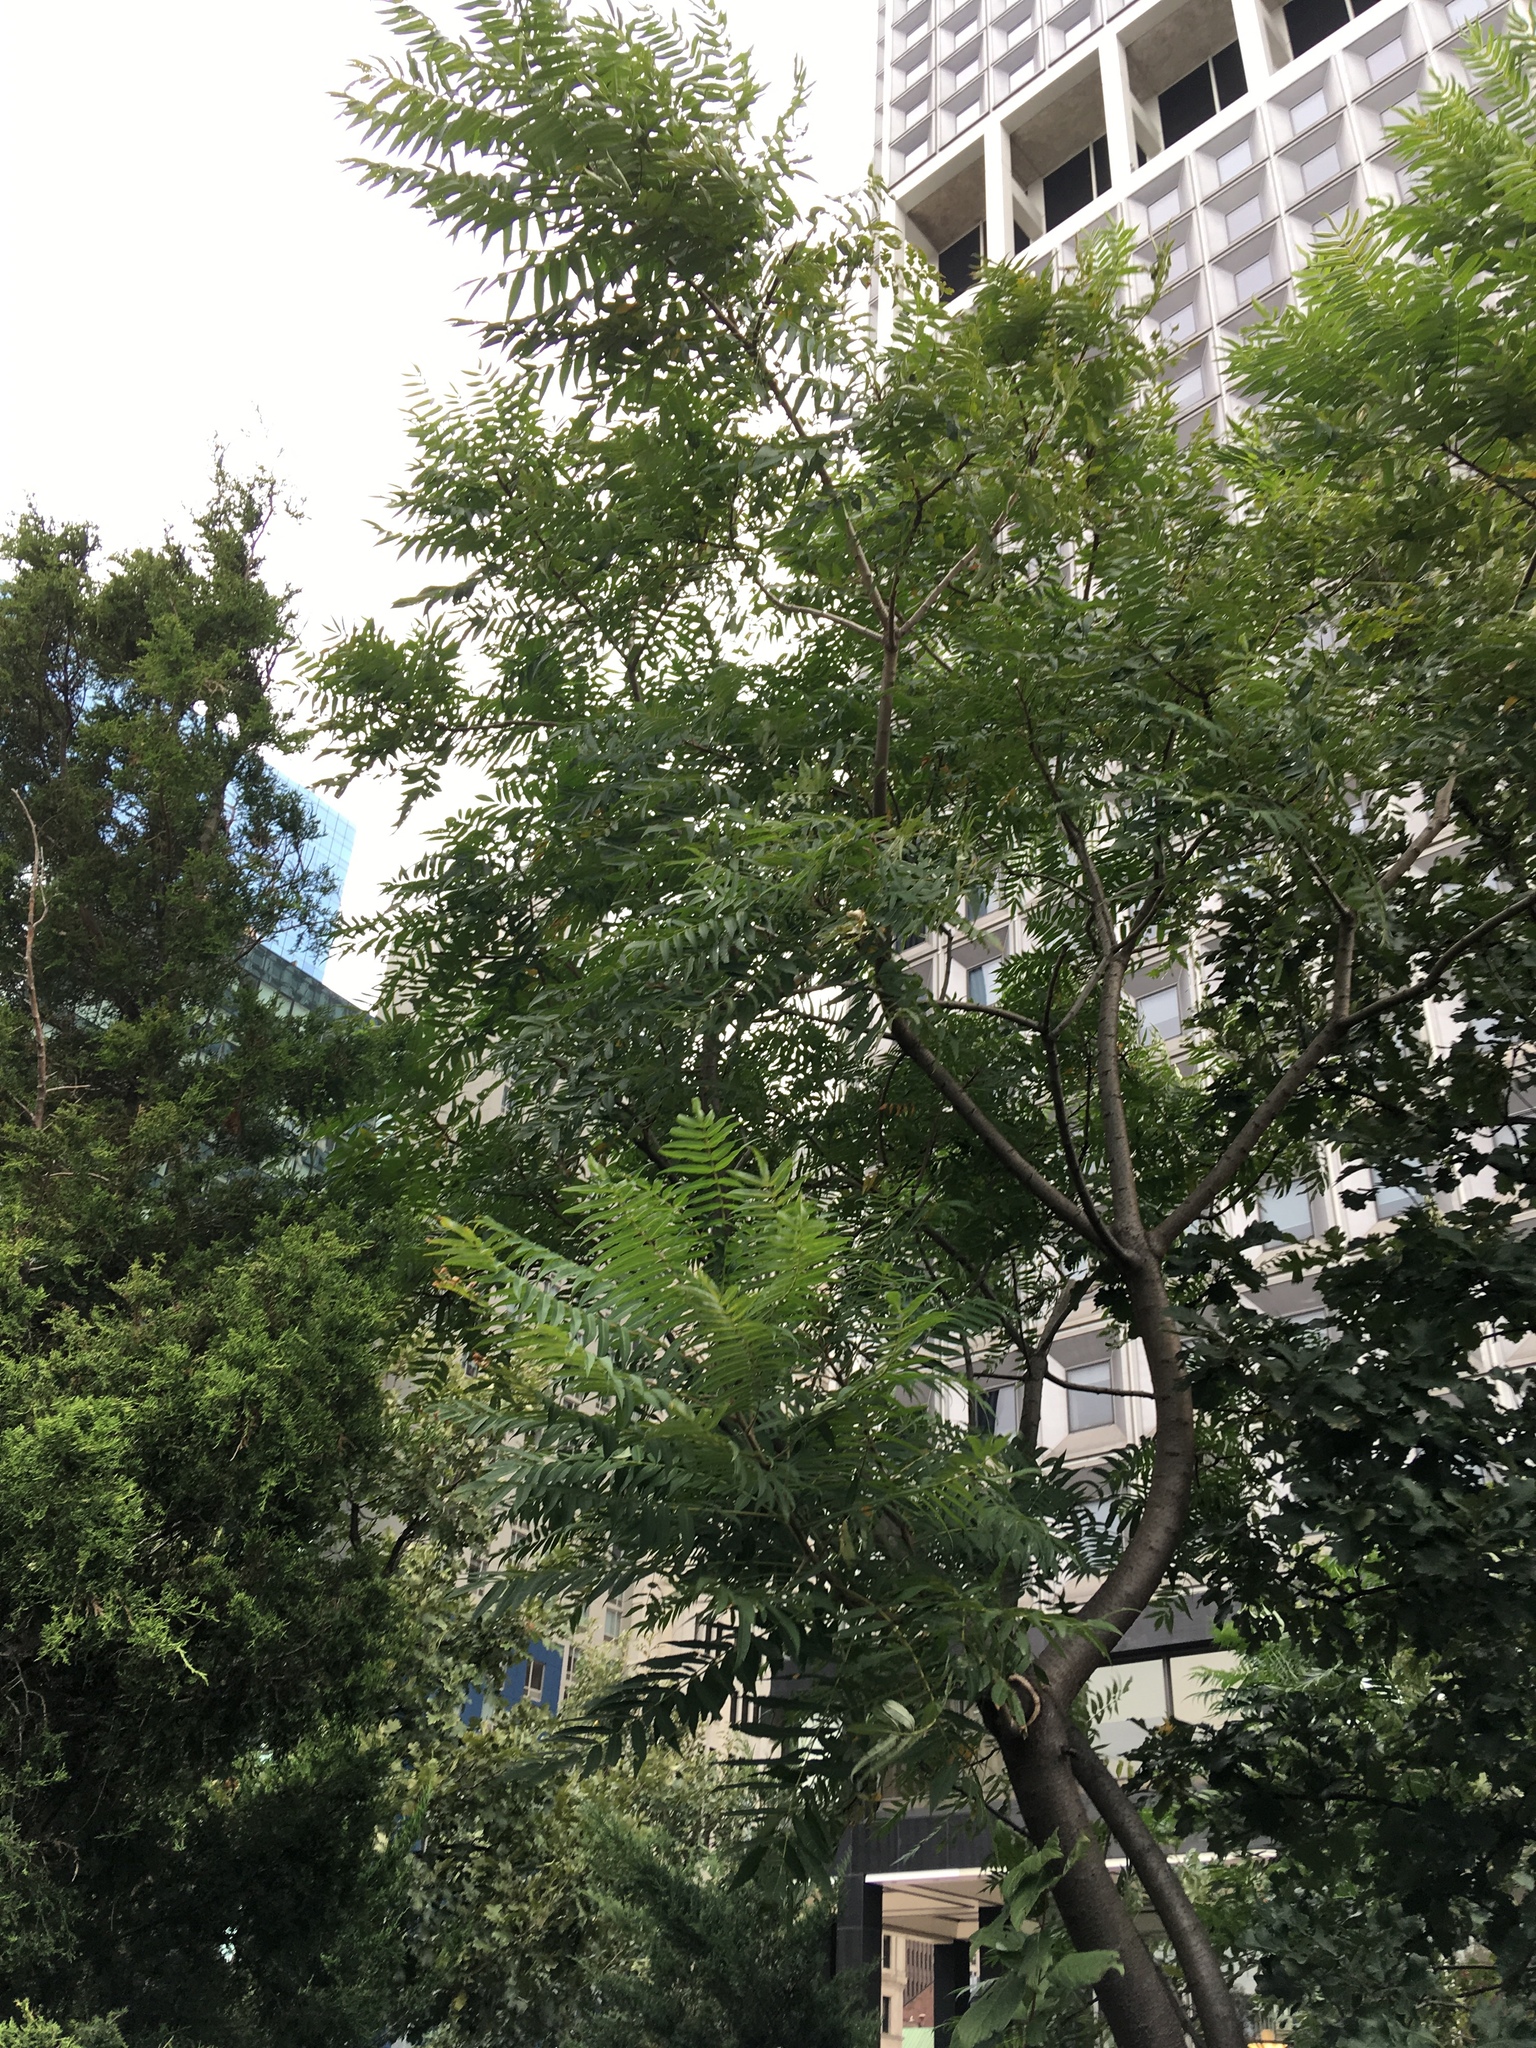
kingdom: Plantae
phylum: Tracheophyta
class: Magnoliopsida
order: Sapindales
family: Anacardiaceae
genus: Rhus
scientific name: Rhus typhina
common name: Staghorn sumac
